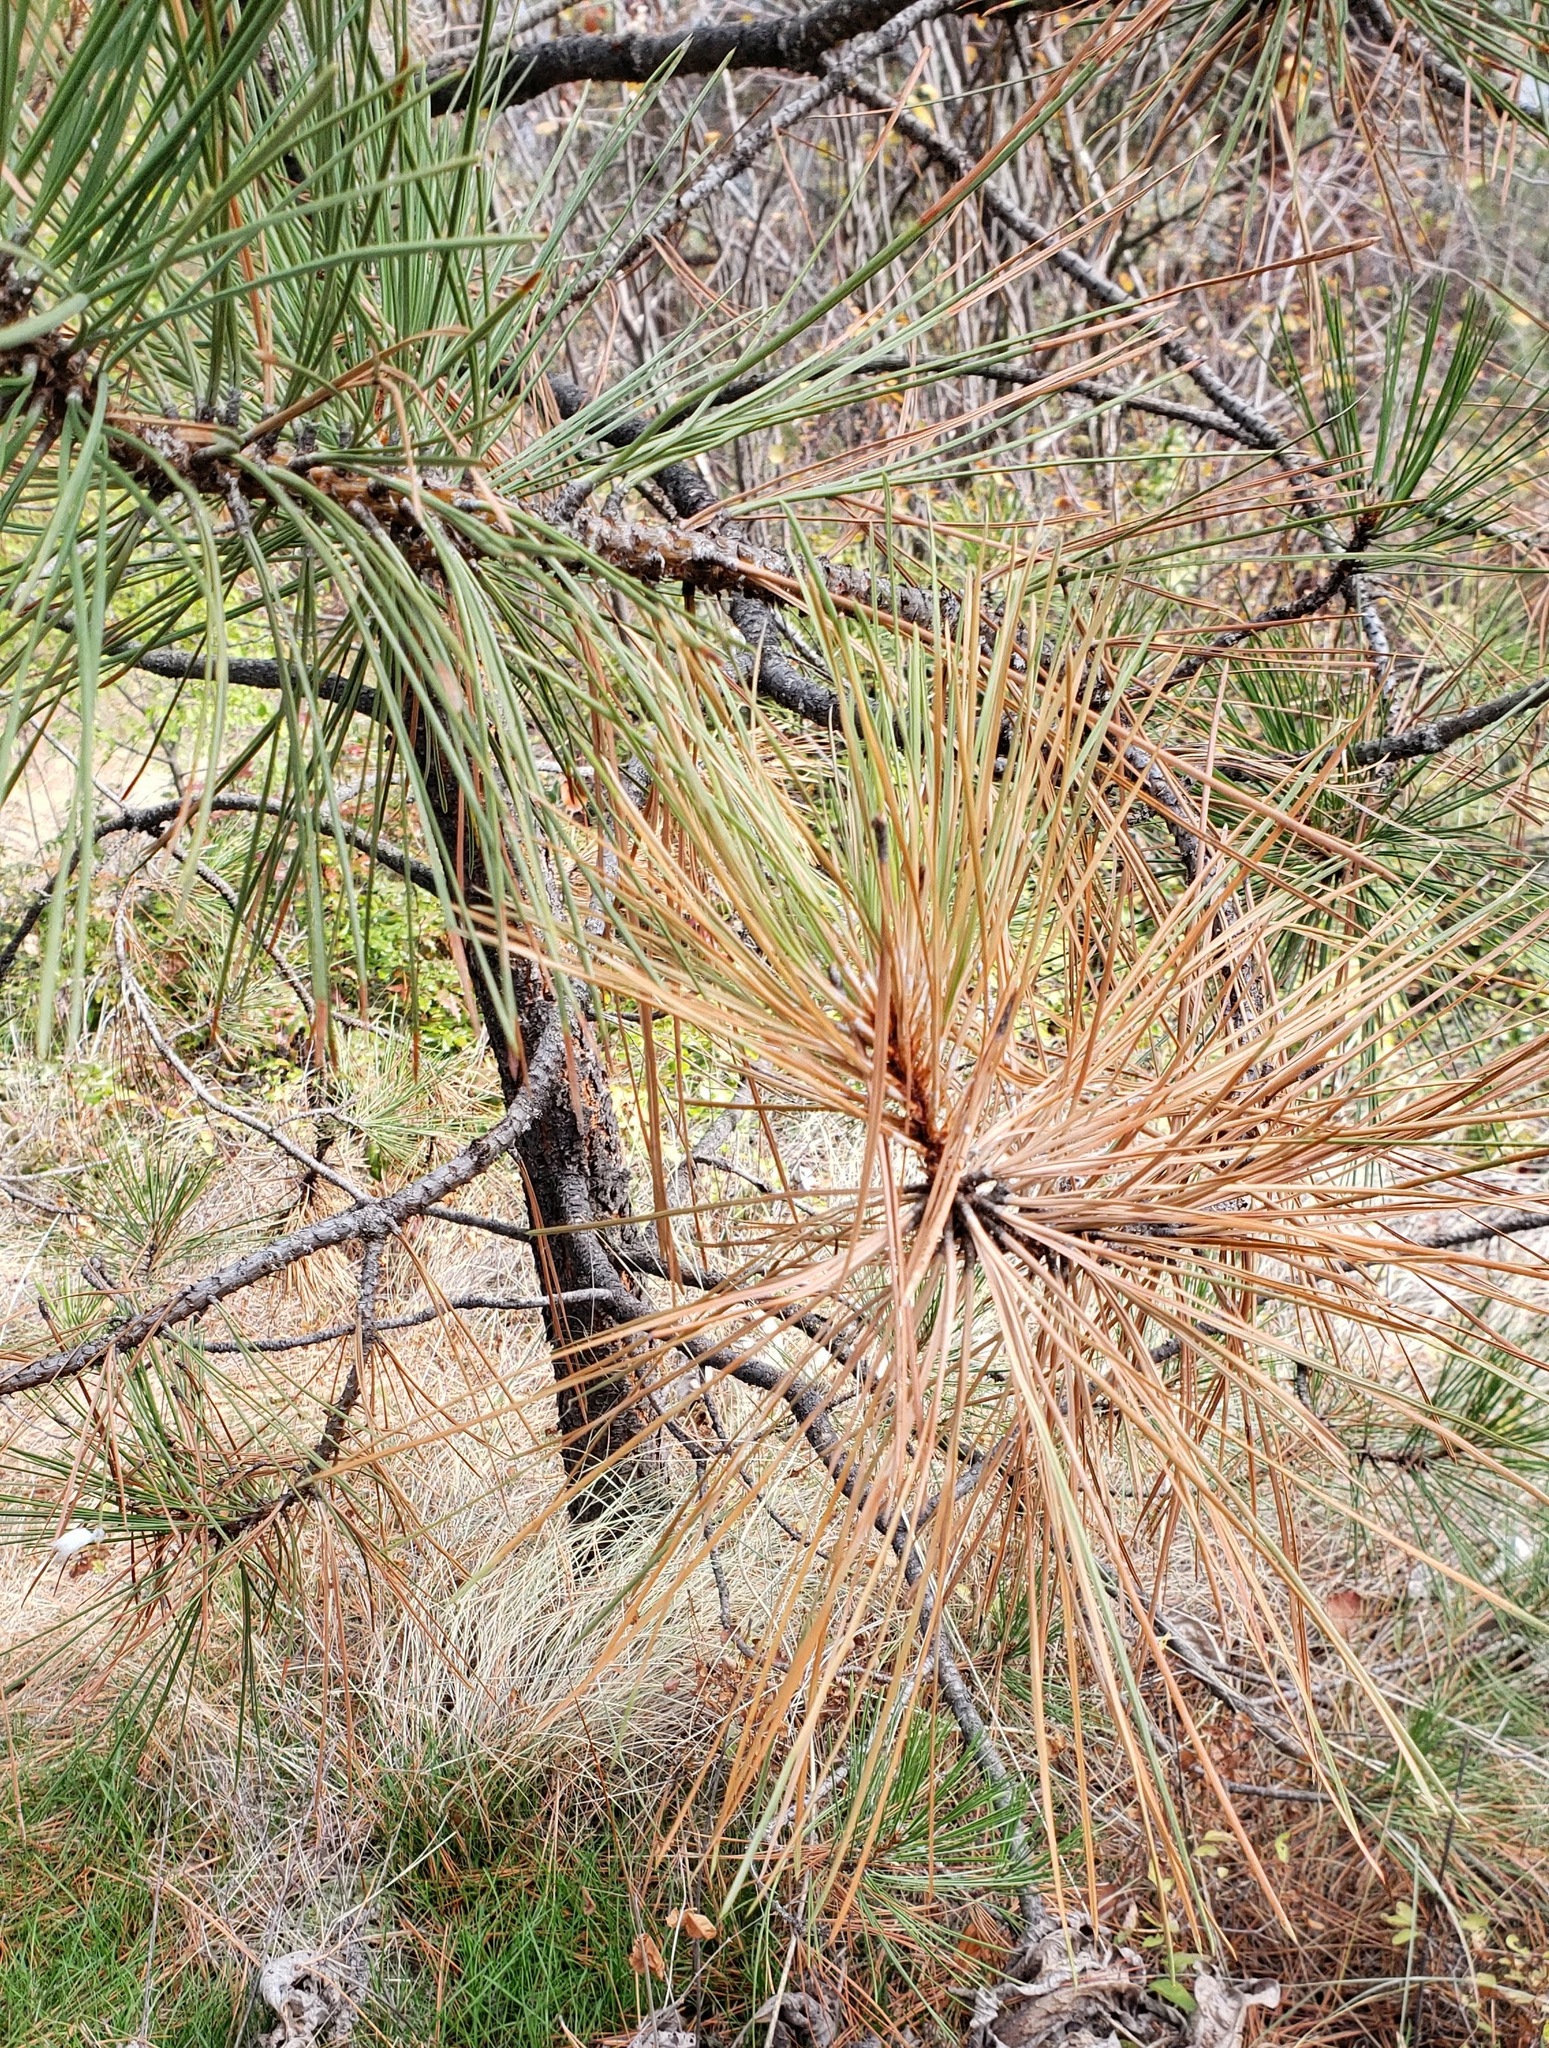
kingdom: Plantae
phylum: Tracheophyta
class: Pinopsida
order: Pinales
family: Pinaceae
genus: Pinus
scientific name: Pinus ponderosa
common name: Western yellow-pine
